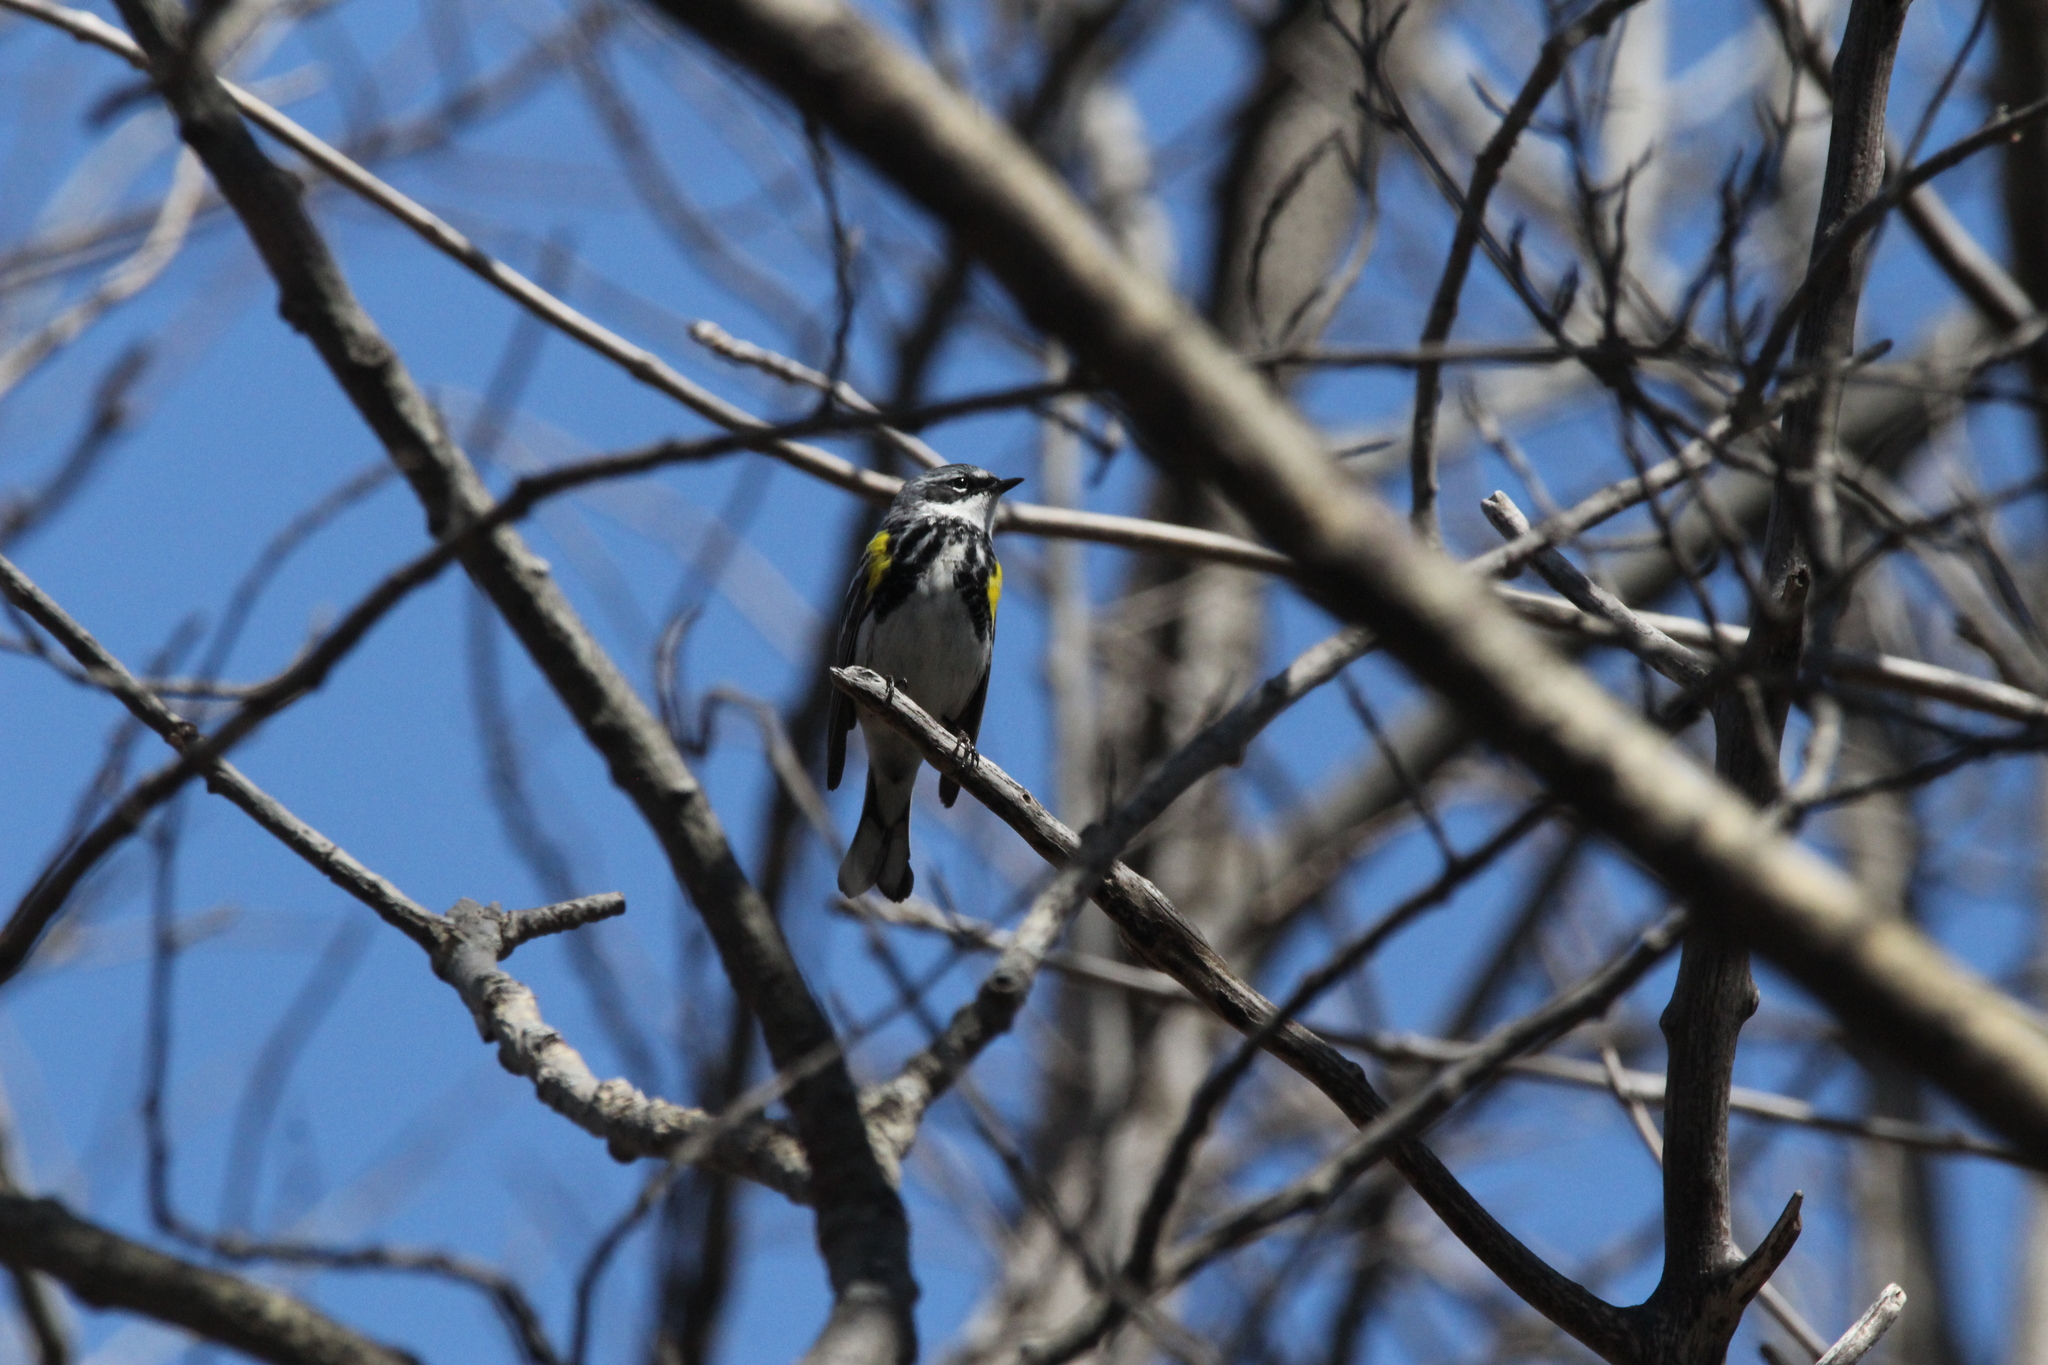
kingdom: Animalia
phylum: Chordata
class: Aves
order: Passeriformes
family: Parulidae
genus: Setophaga
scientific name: Setophaga coronata
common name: Myrtle warbler
